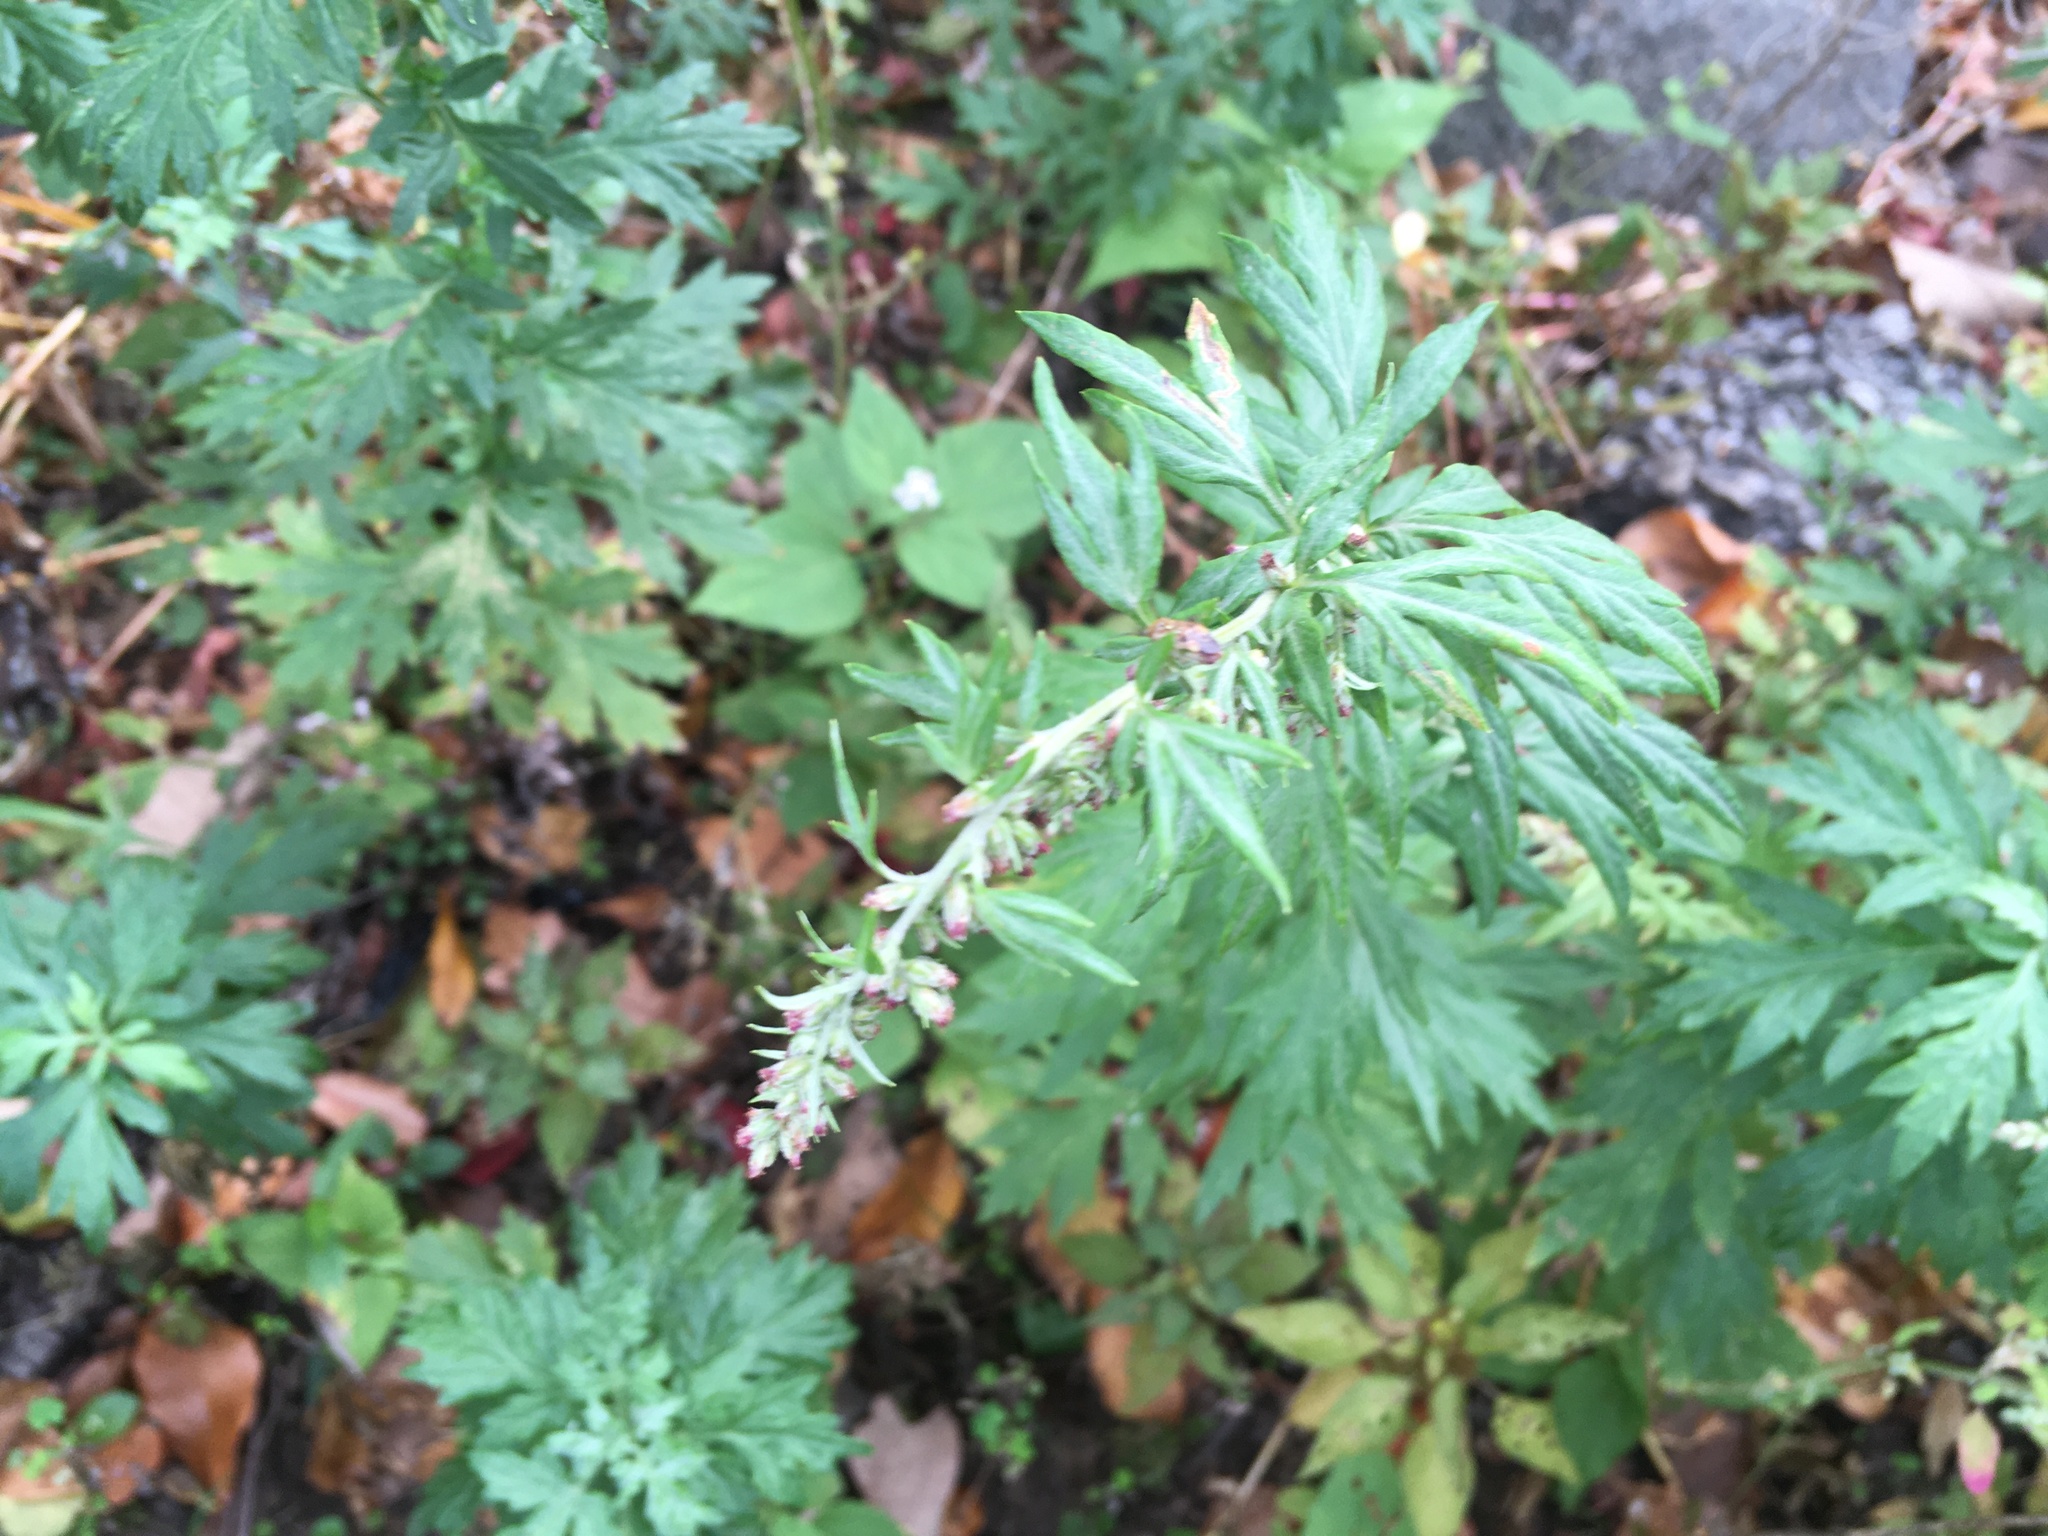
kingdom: Plantae
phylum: Tracheophyta
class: Magnoliopsida
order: Asterales
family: Asteraceae
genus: Artemisia
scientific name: Artemisia vulgaris
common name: Mugwort
